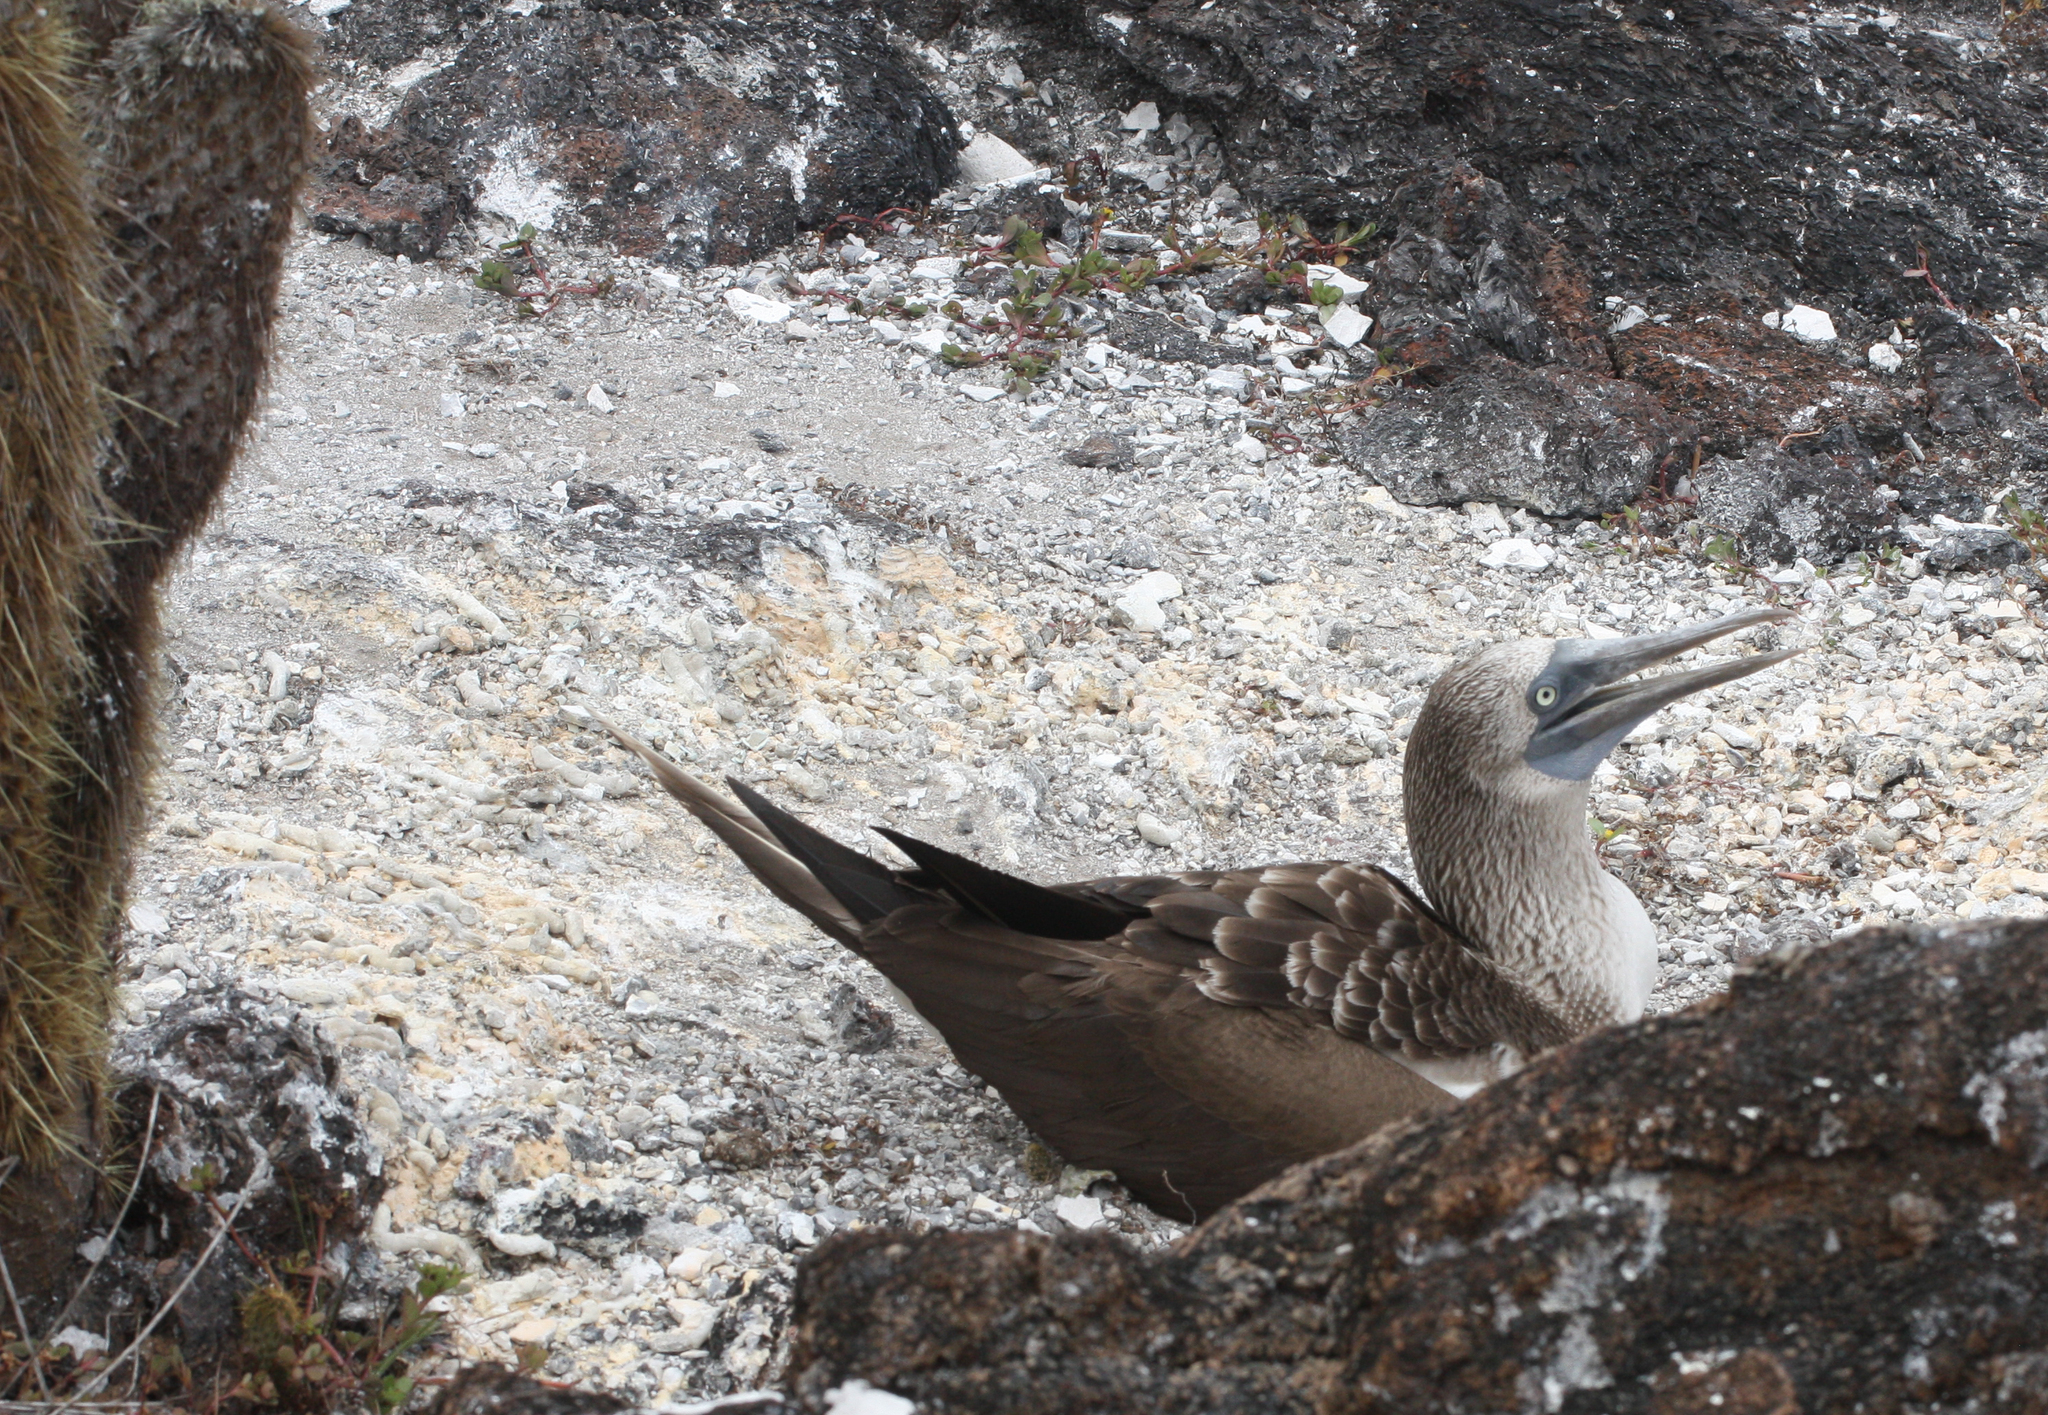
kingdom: Animalia
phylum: Chordata
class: Aves
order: Suliformes
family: Sulidae
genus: Sula
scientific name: Sula nebouxii
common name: Blue-footed booby
